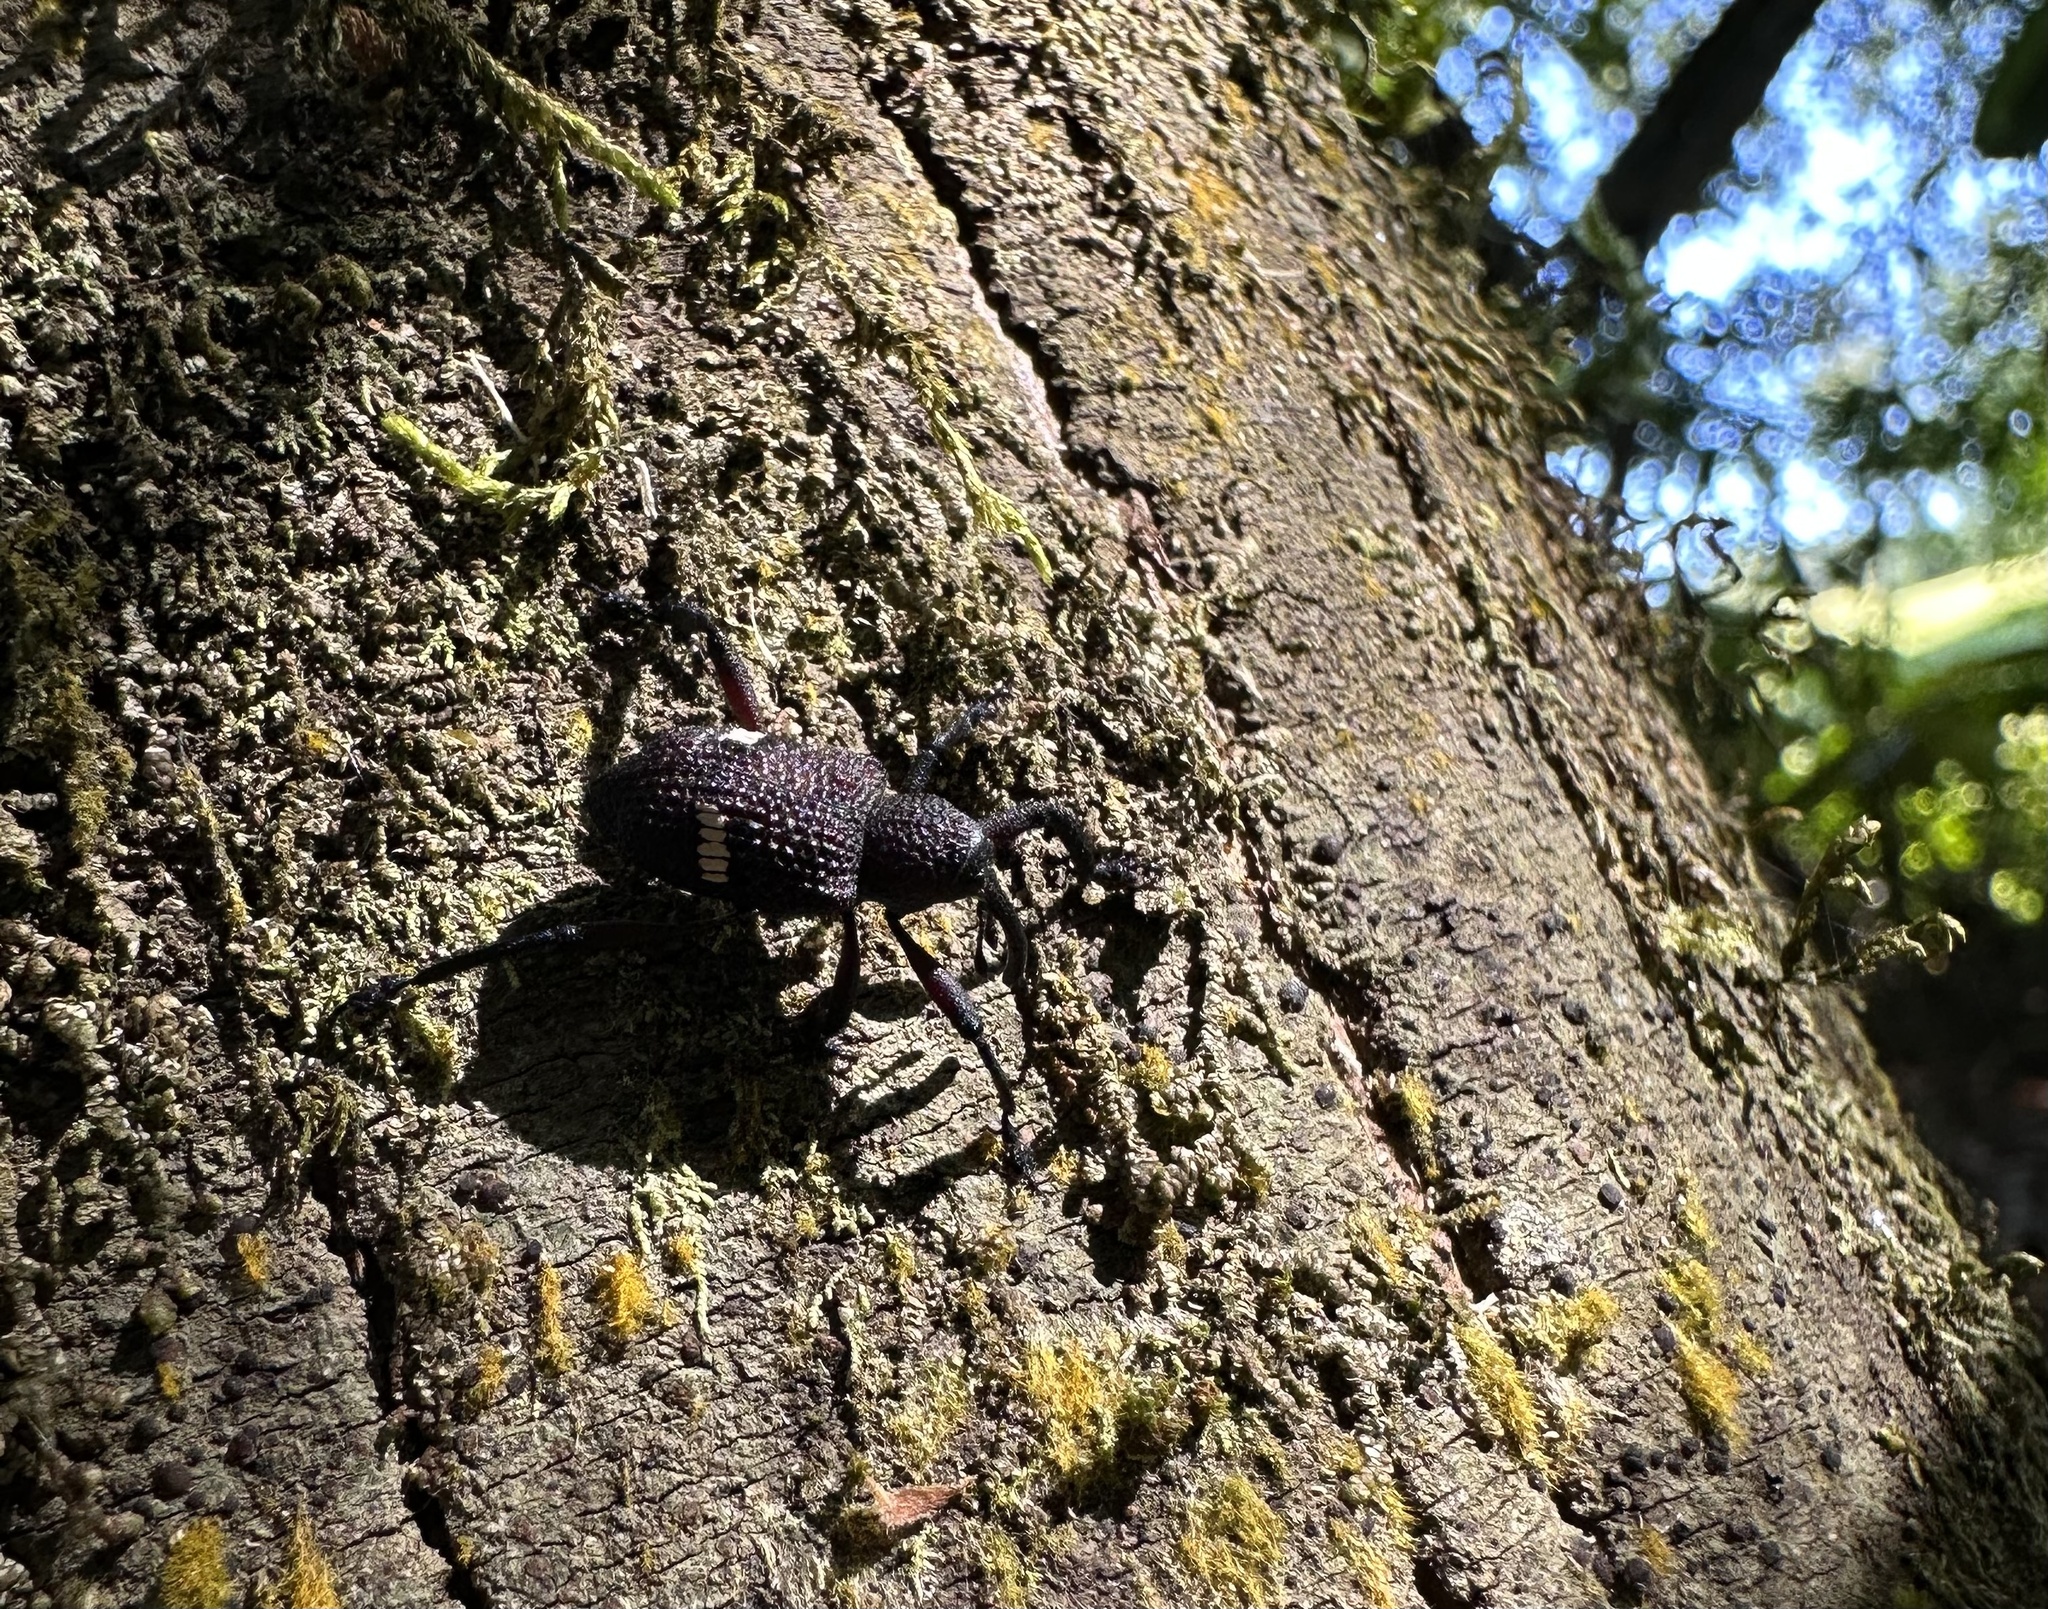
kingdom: Animalia
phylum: Arthropoda
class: Insecta
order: Coleoptera
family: Curculionidae
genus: Tartarisus
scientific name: Tartarisus
